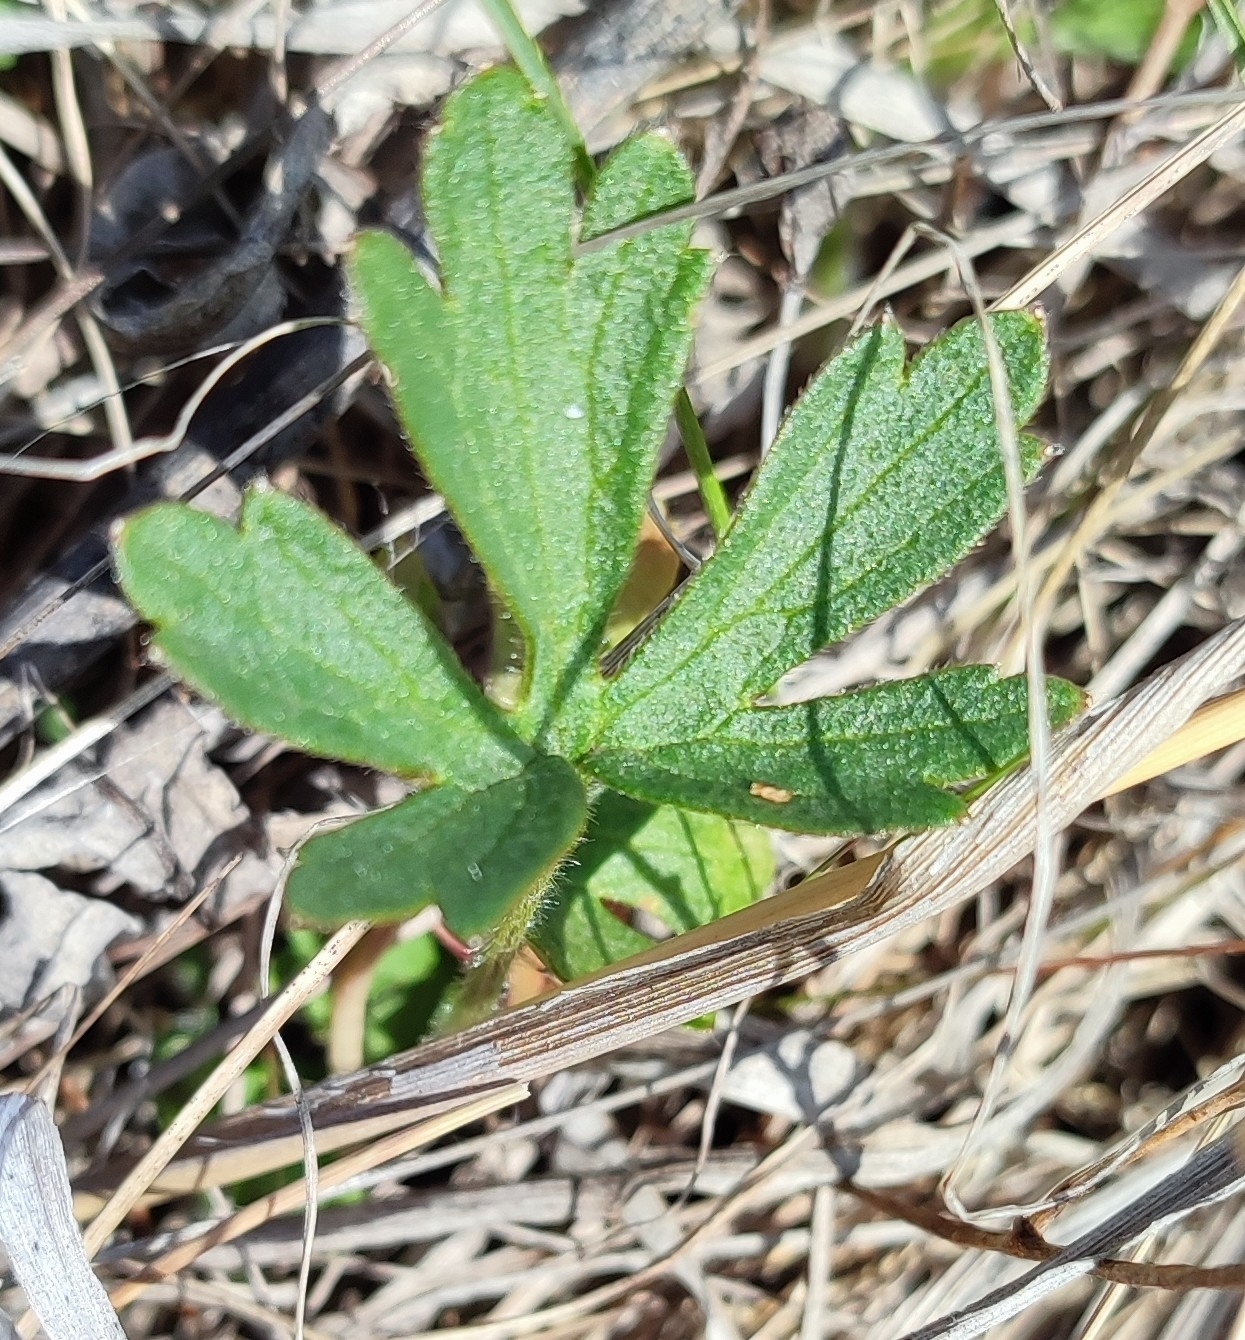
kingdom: Plantae
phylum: Tracheophyta
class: Magnoliopsida
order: Ranunculales
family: Ranunculaceae
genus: Anemone
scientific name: Anemone sylvestris
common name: Snowdrop anemone
